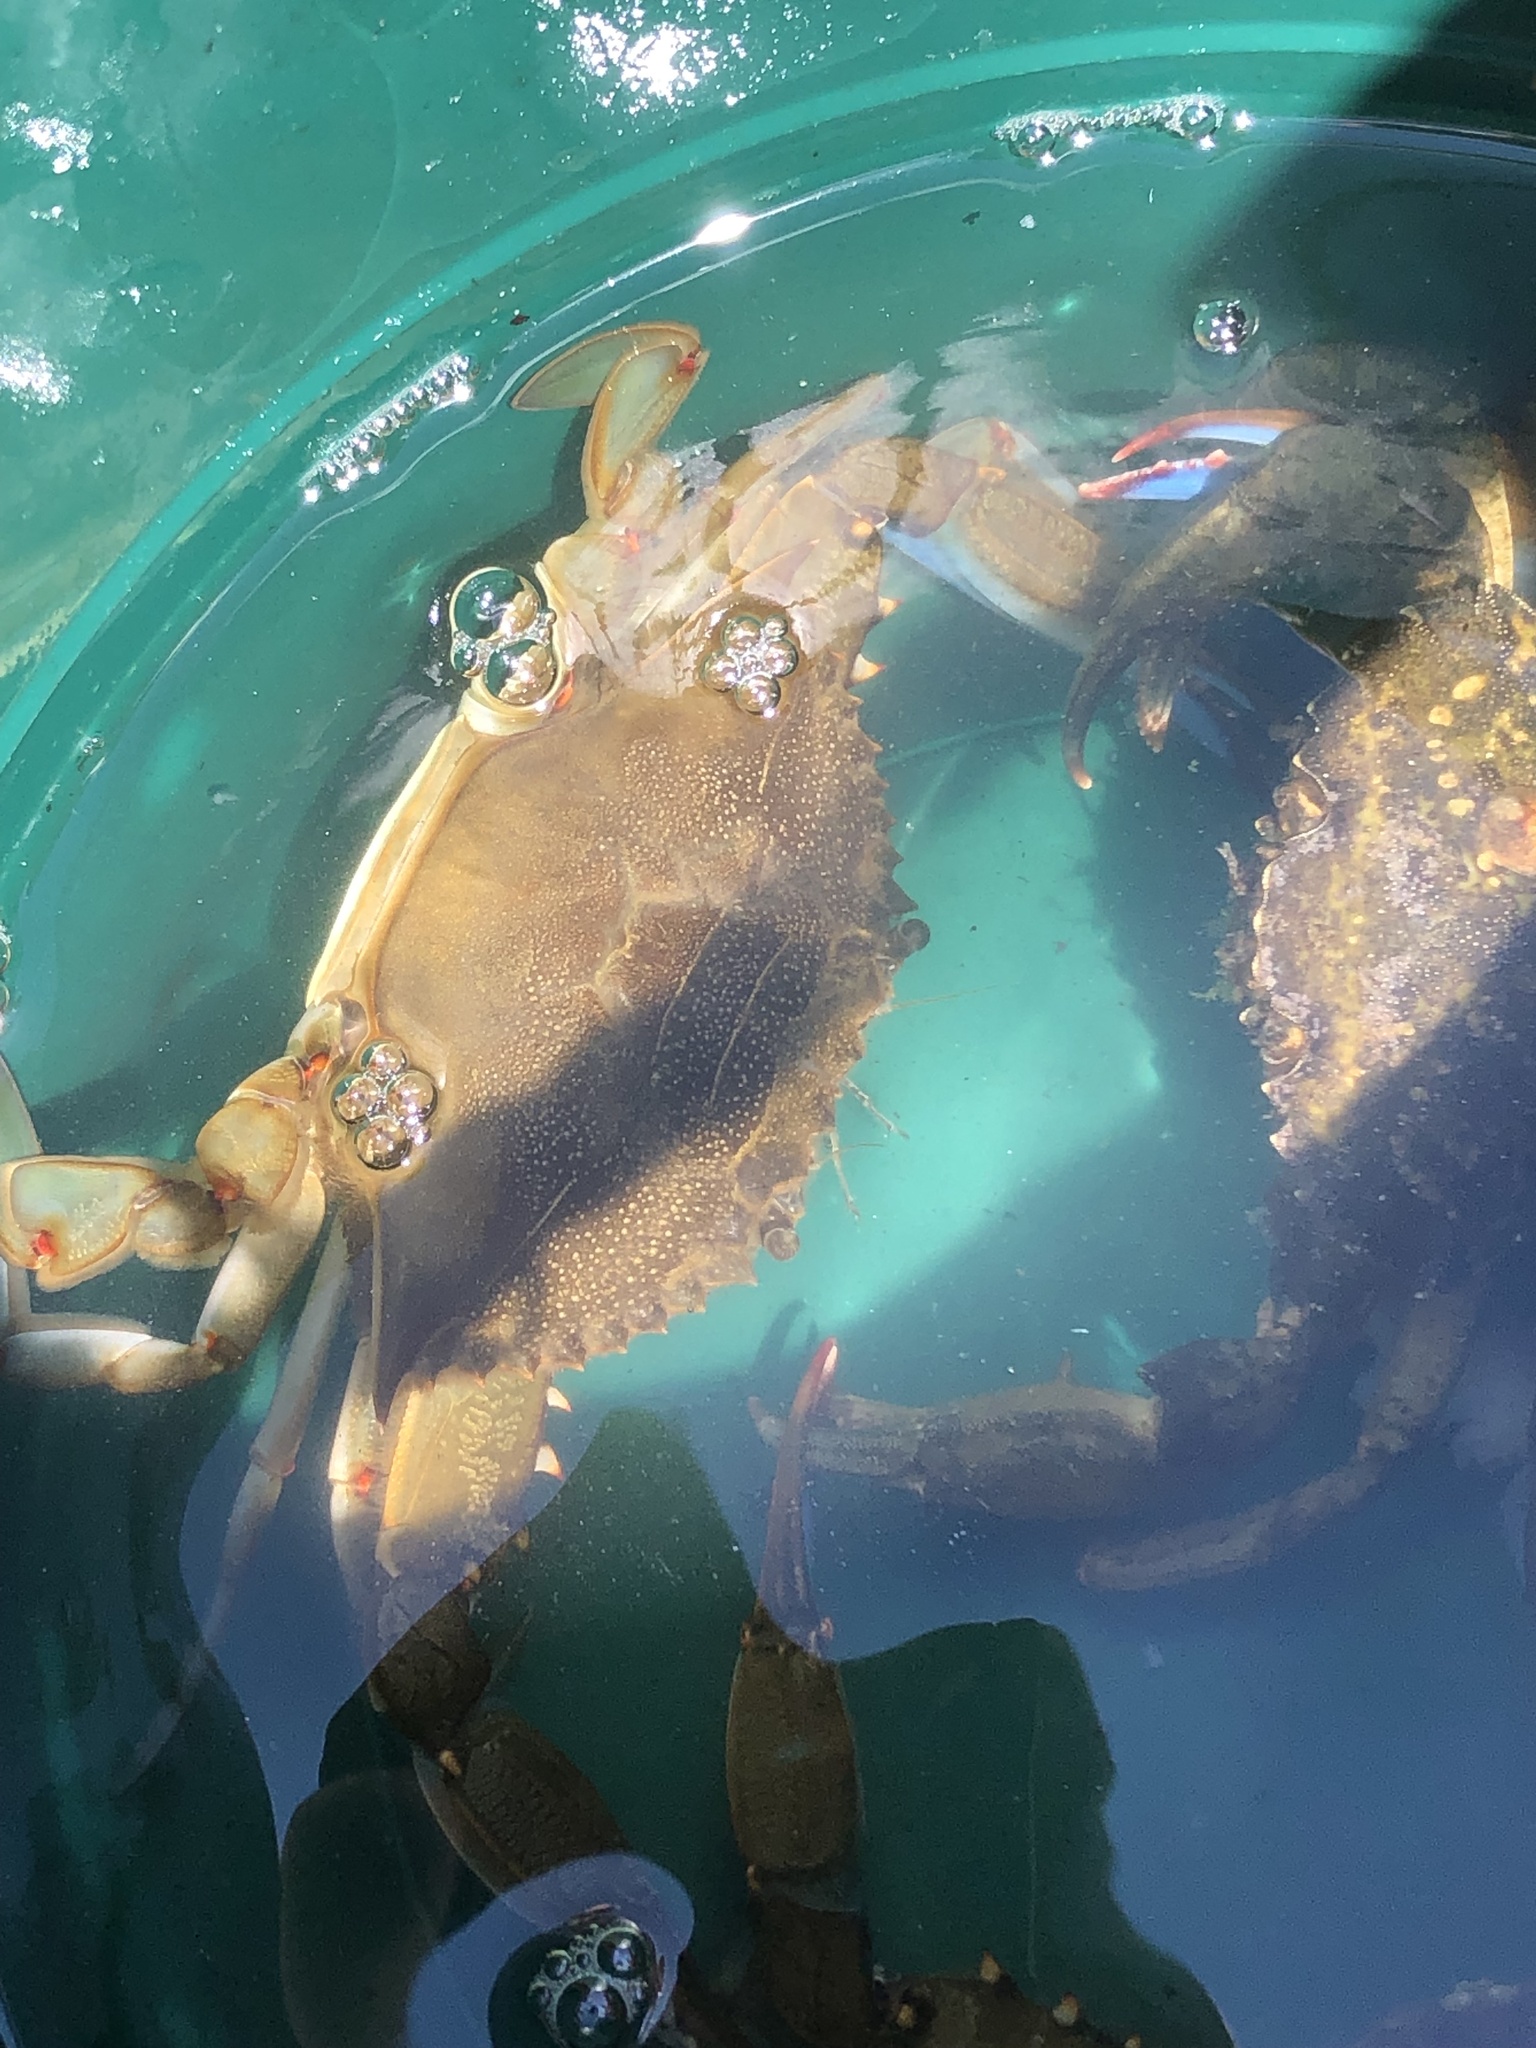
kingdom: Animalia
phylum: Arthropoda
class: Malacostraca
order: Decapoda
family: Portunidae
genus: Callinectes
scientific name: Callinectes sapidus
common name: Blue crab
